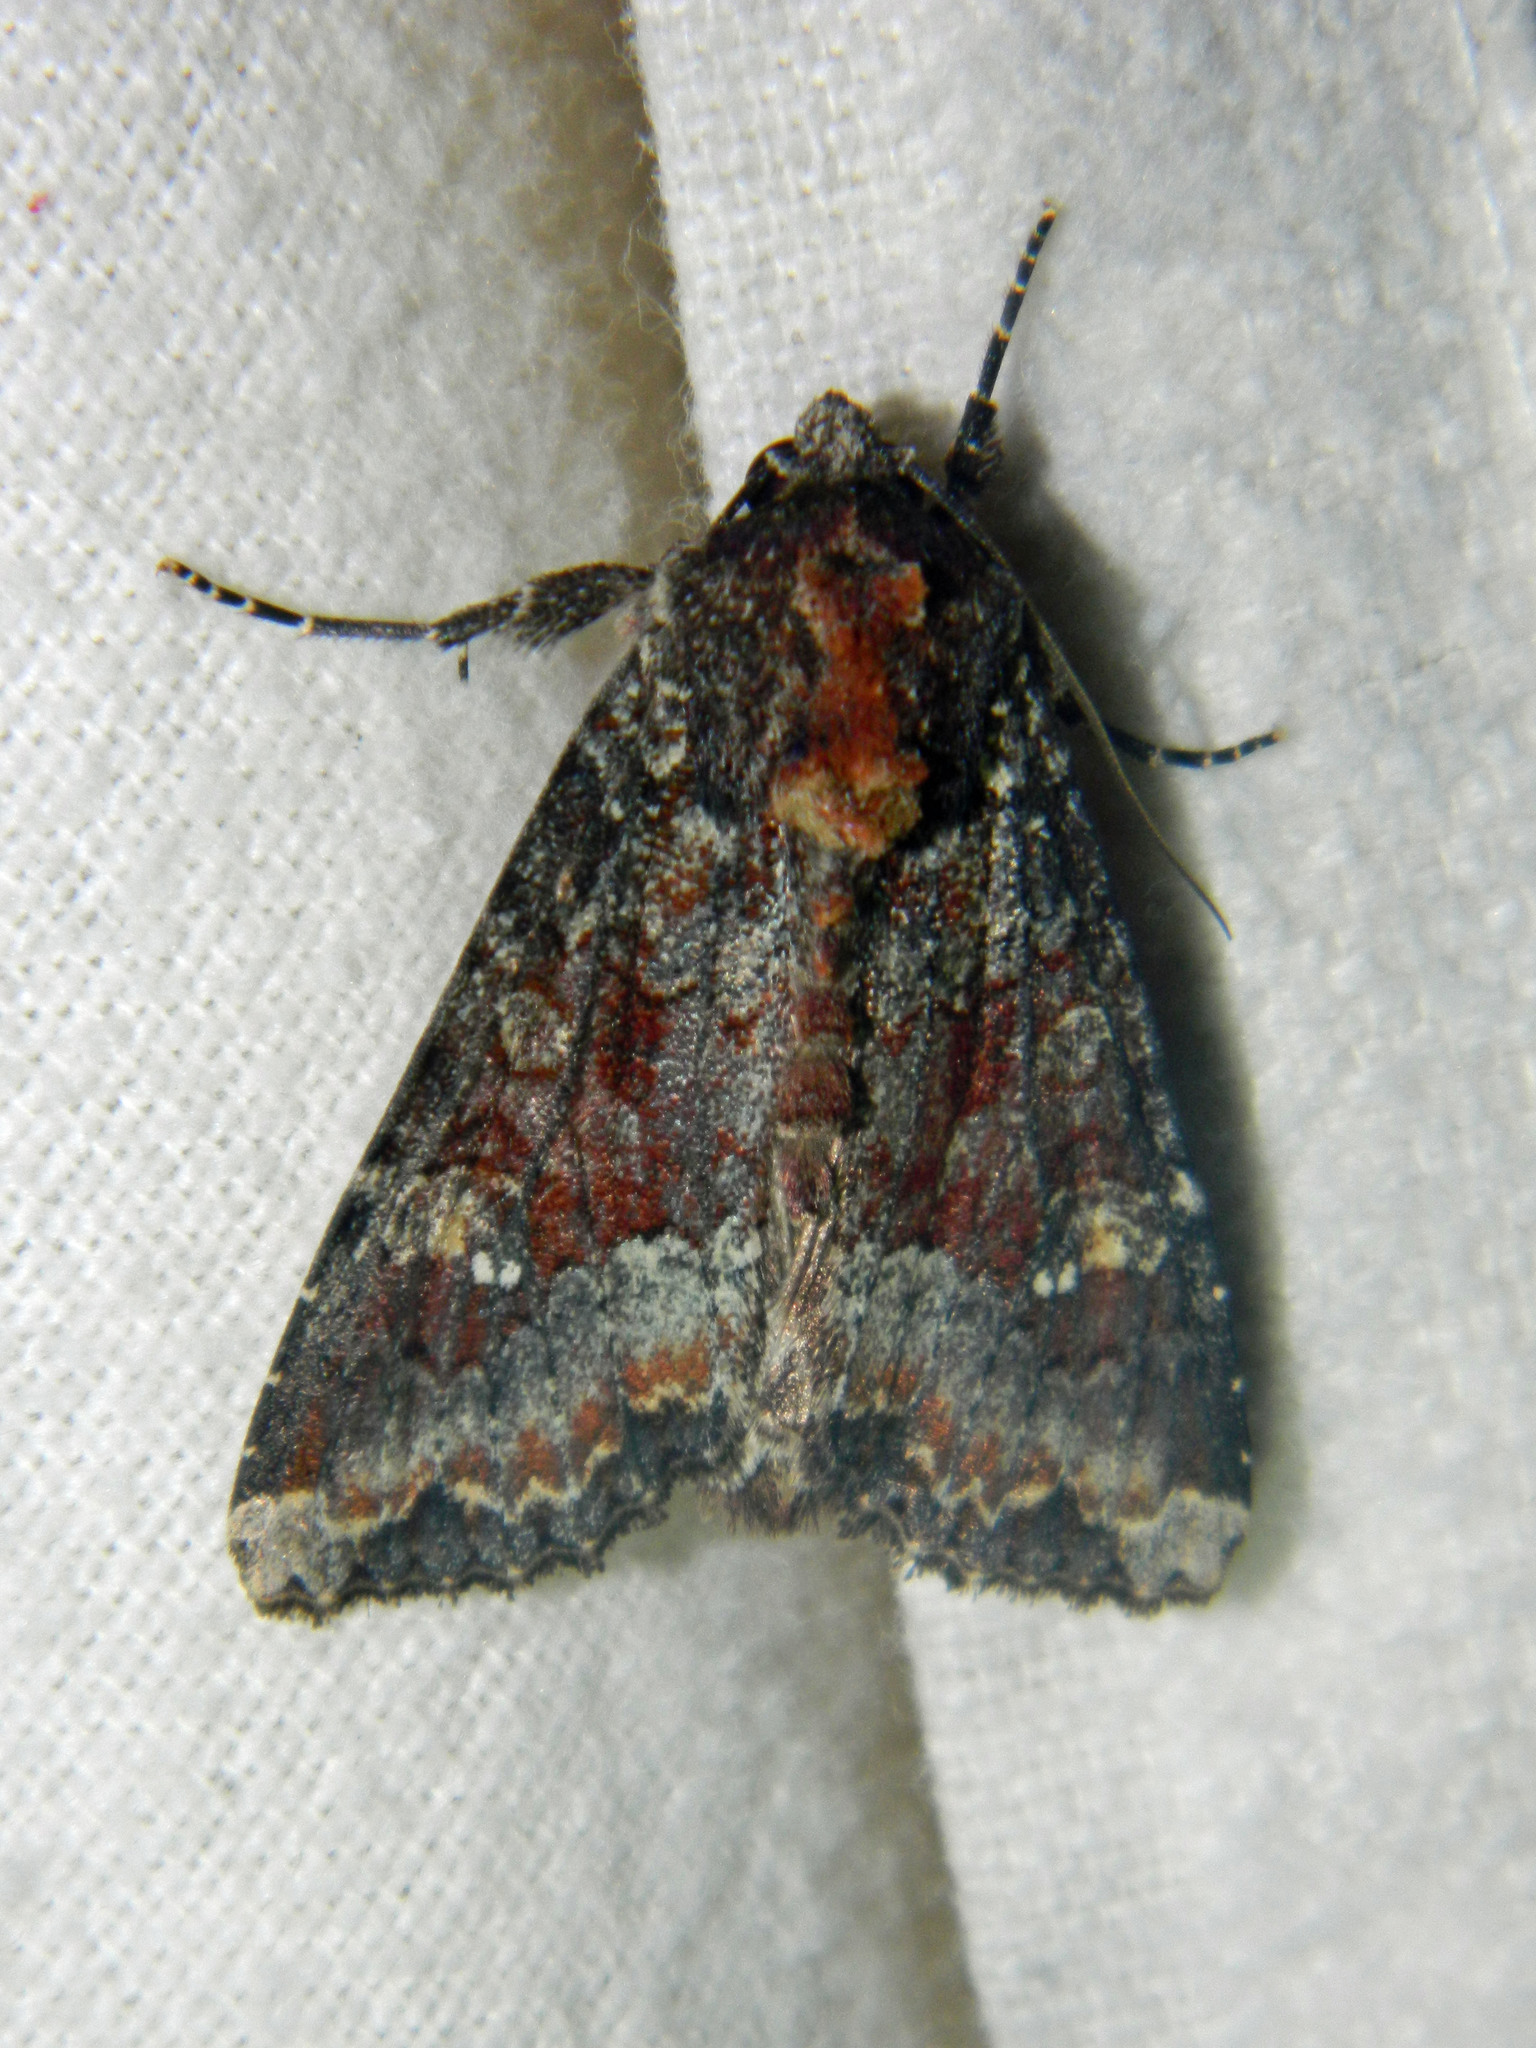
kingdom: Animalia
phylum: Arthropoda
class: Insecta
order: Lepidoptera
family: Noctuidae
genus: Apamea
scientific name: Apamea amputatrix
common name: Yellow-headed cutworm moth
